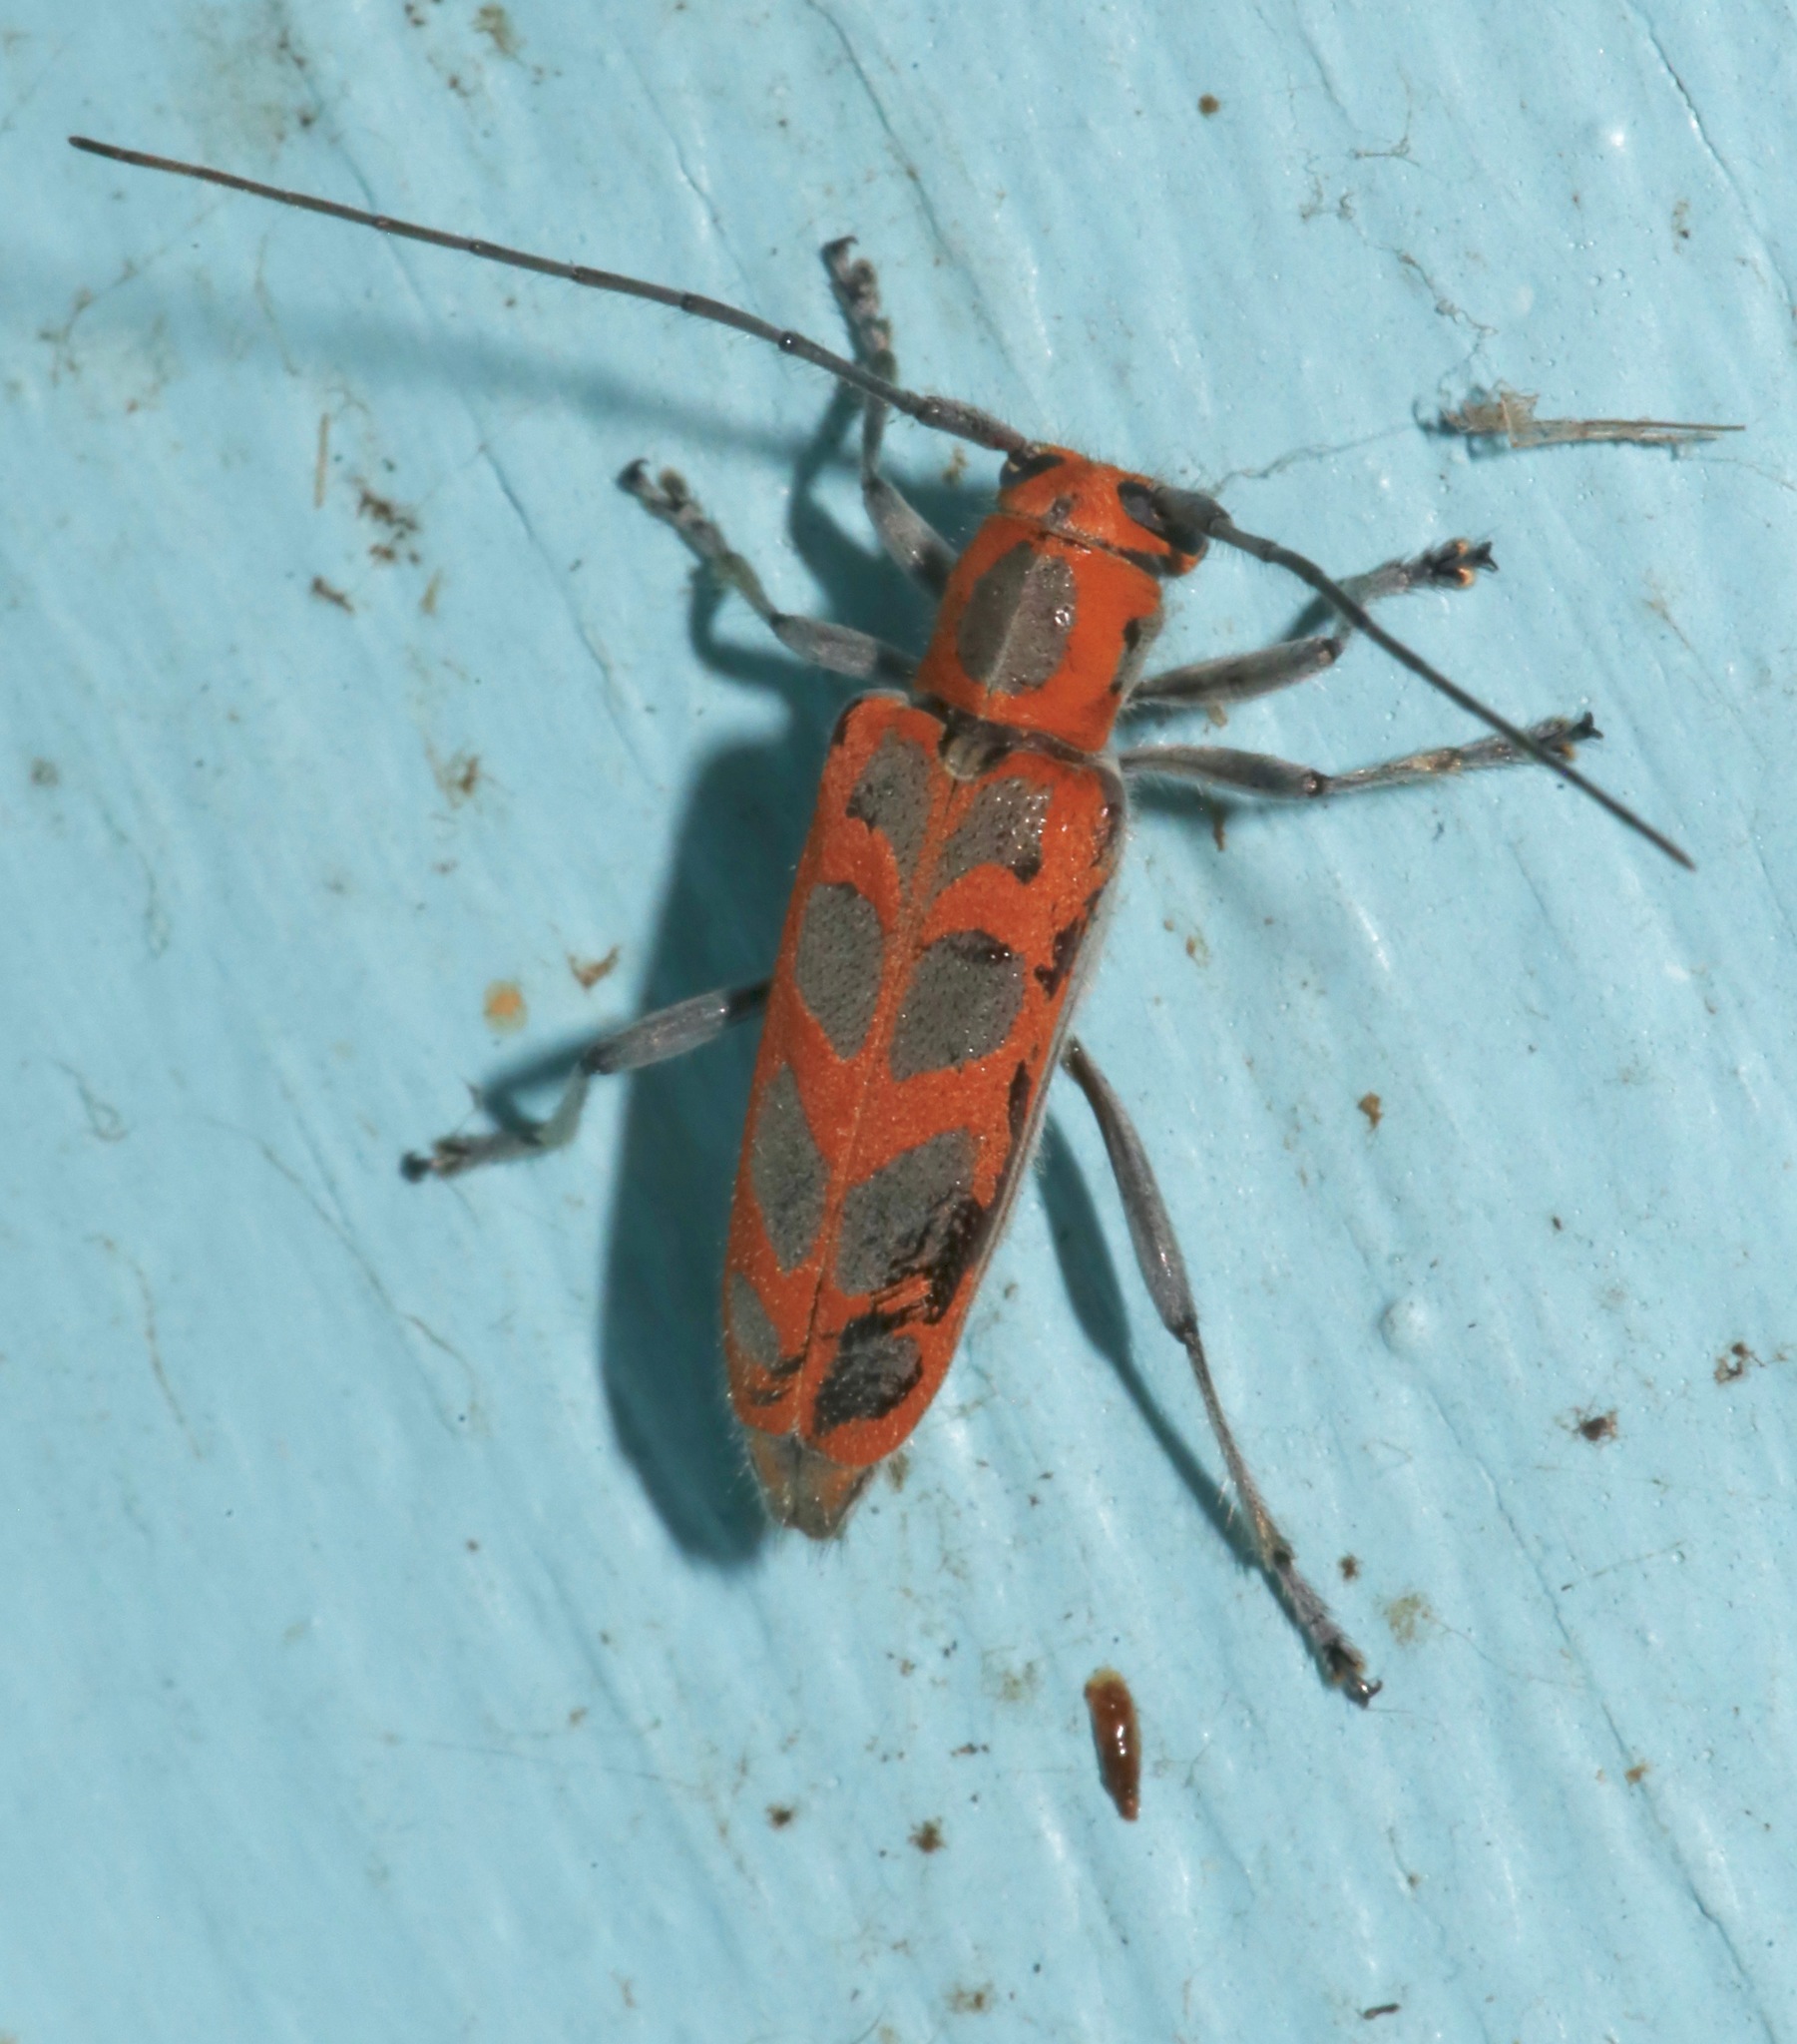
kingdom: Animalia
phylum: Arthropoda
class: Insecta
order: Coleoptera
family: Cerambycidae
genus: Saperda
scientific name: Saperda tridentata
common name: Elm borer
